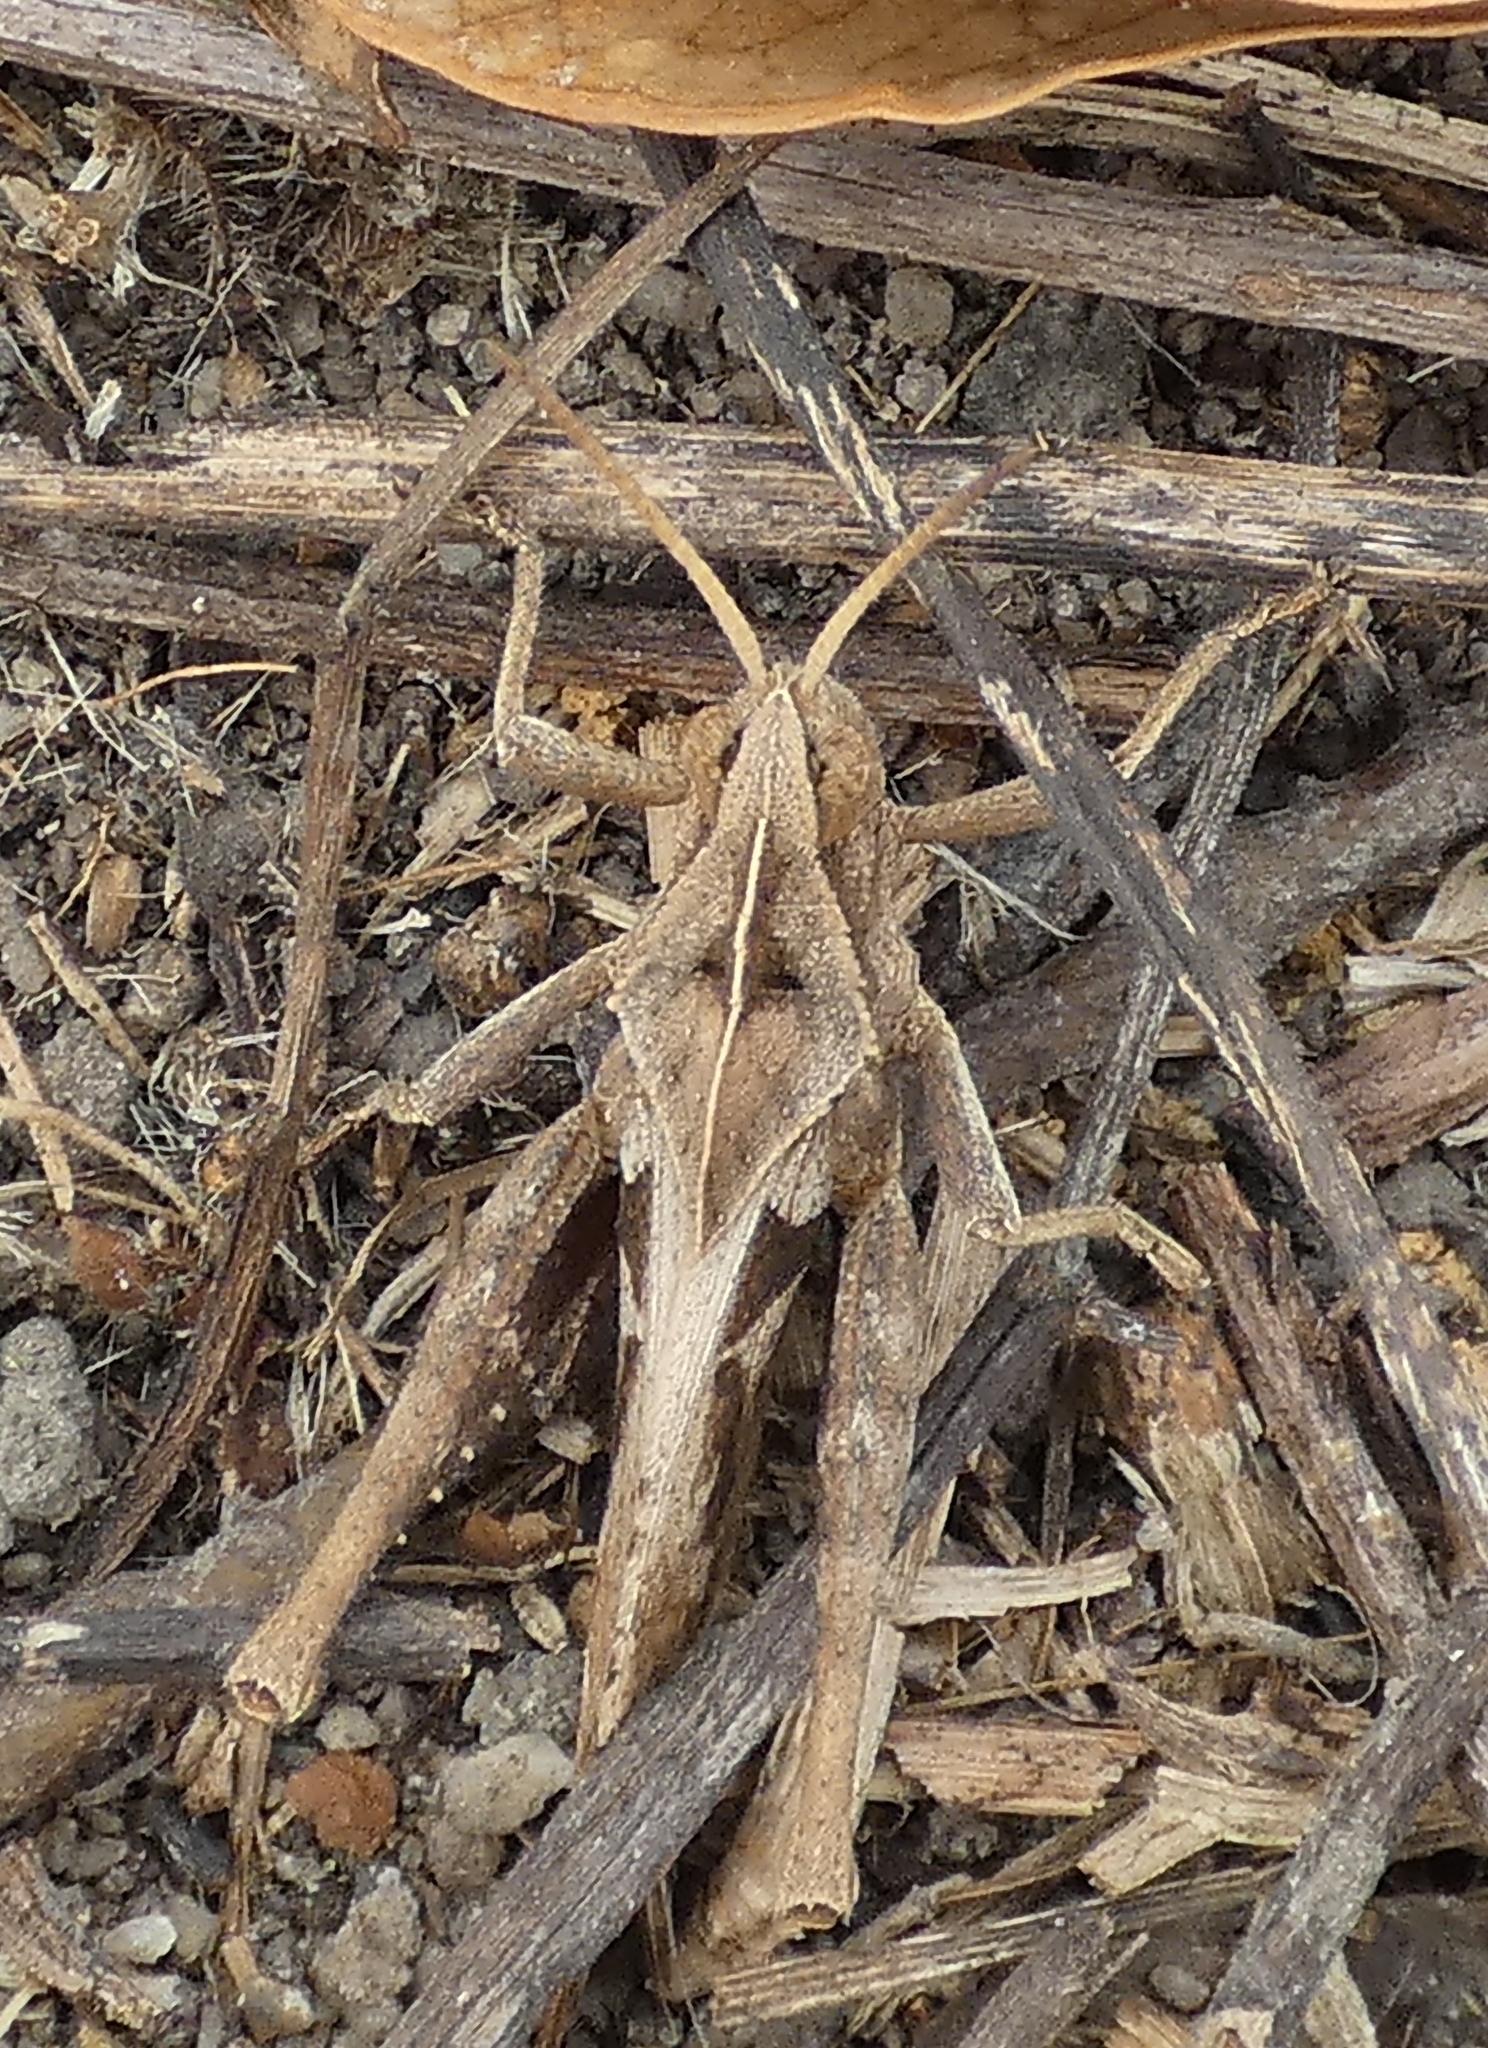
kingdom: Animalia
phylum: Arthropoda
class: Insecta
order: Orthoptera
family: Romaleidae
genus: Xyleus
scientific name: Xyleus discoideus
